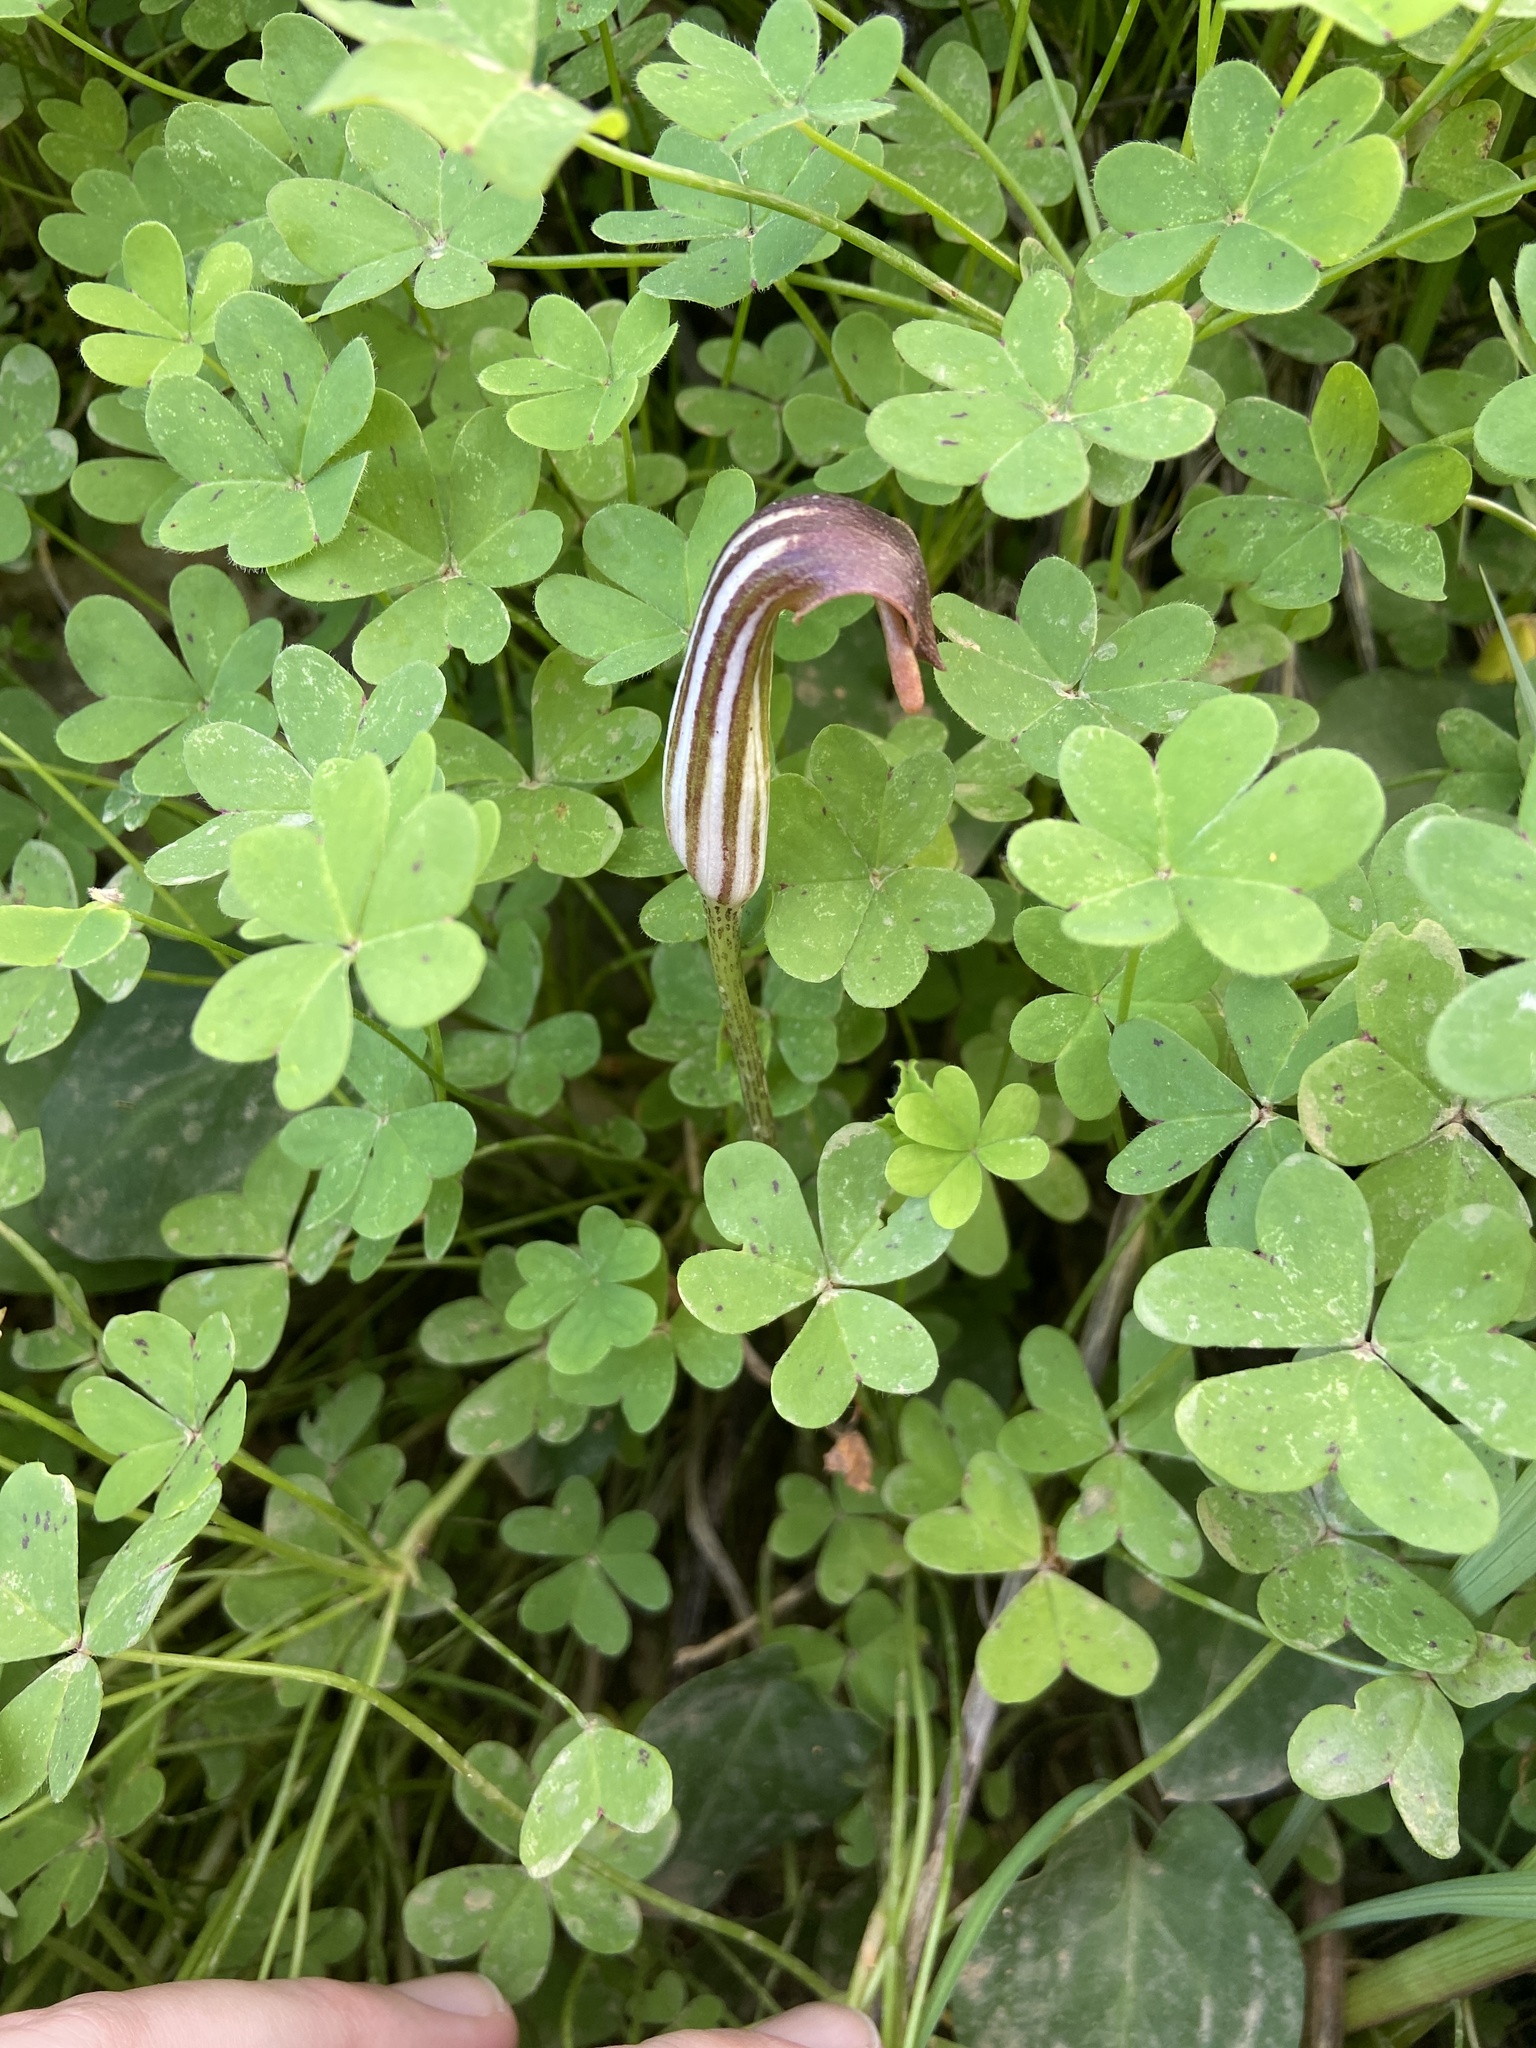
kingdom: Plantae
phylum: Tracheophyta
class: Liliopsida
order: Alismatales
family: Araceae
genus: Arisarum
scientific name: Arisarum vulgare
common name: Common arisarum
